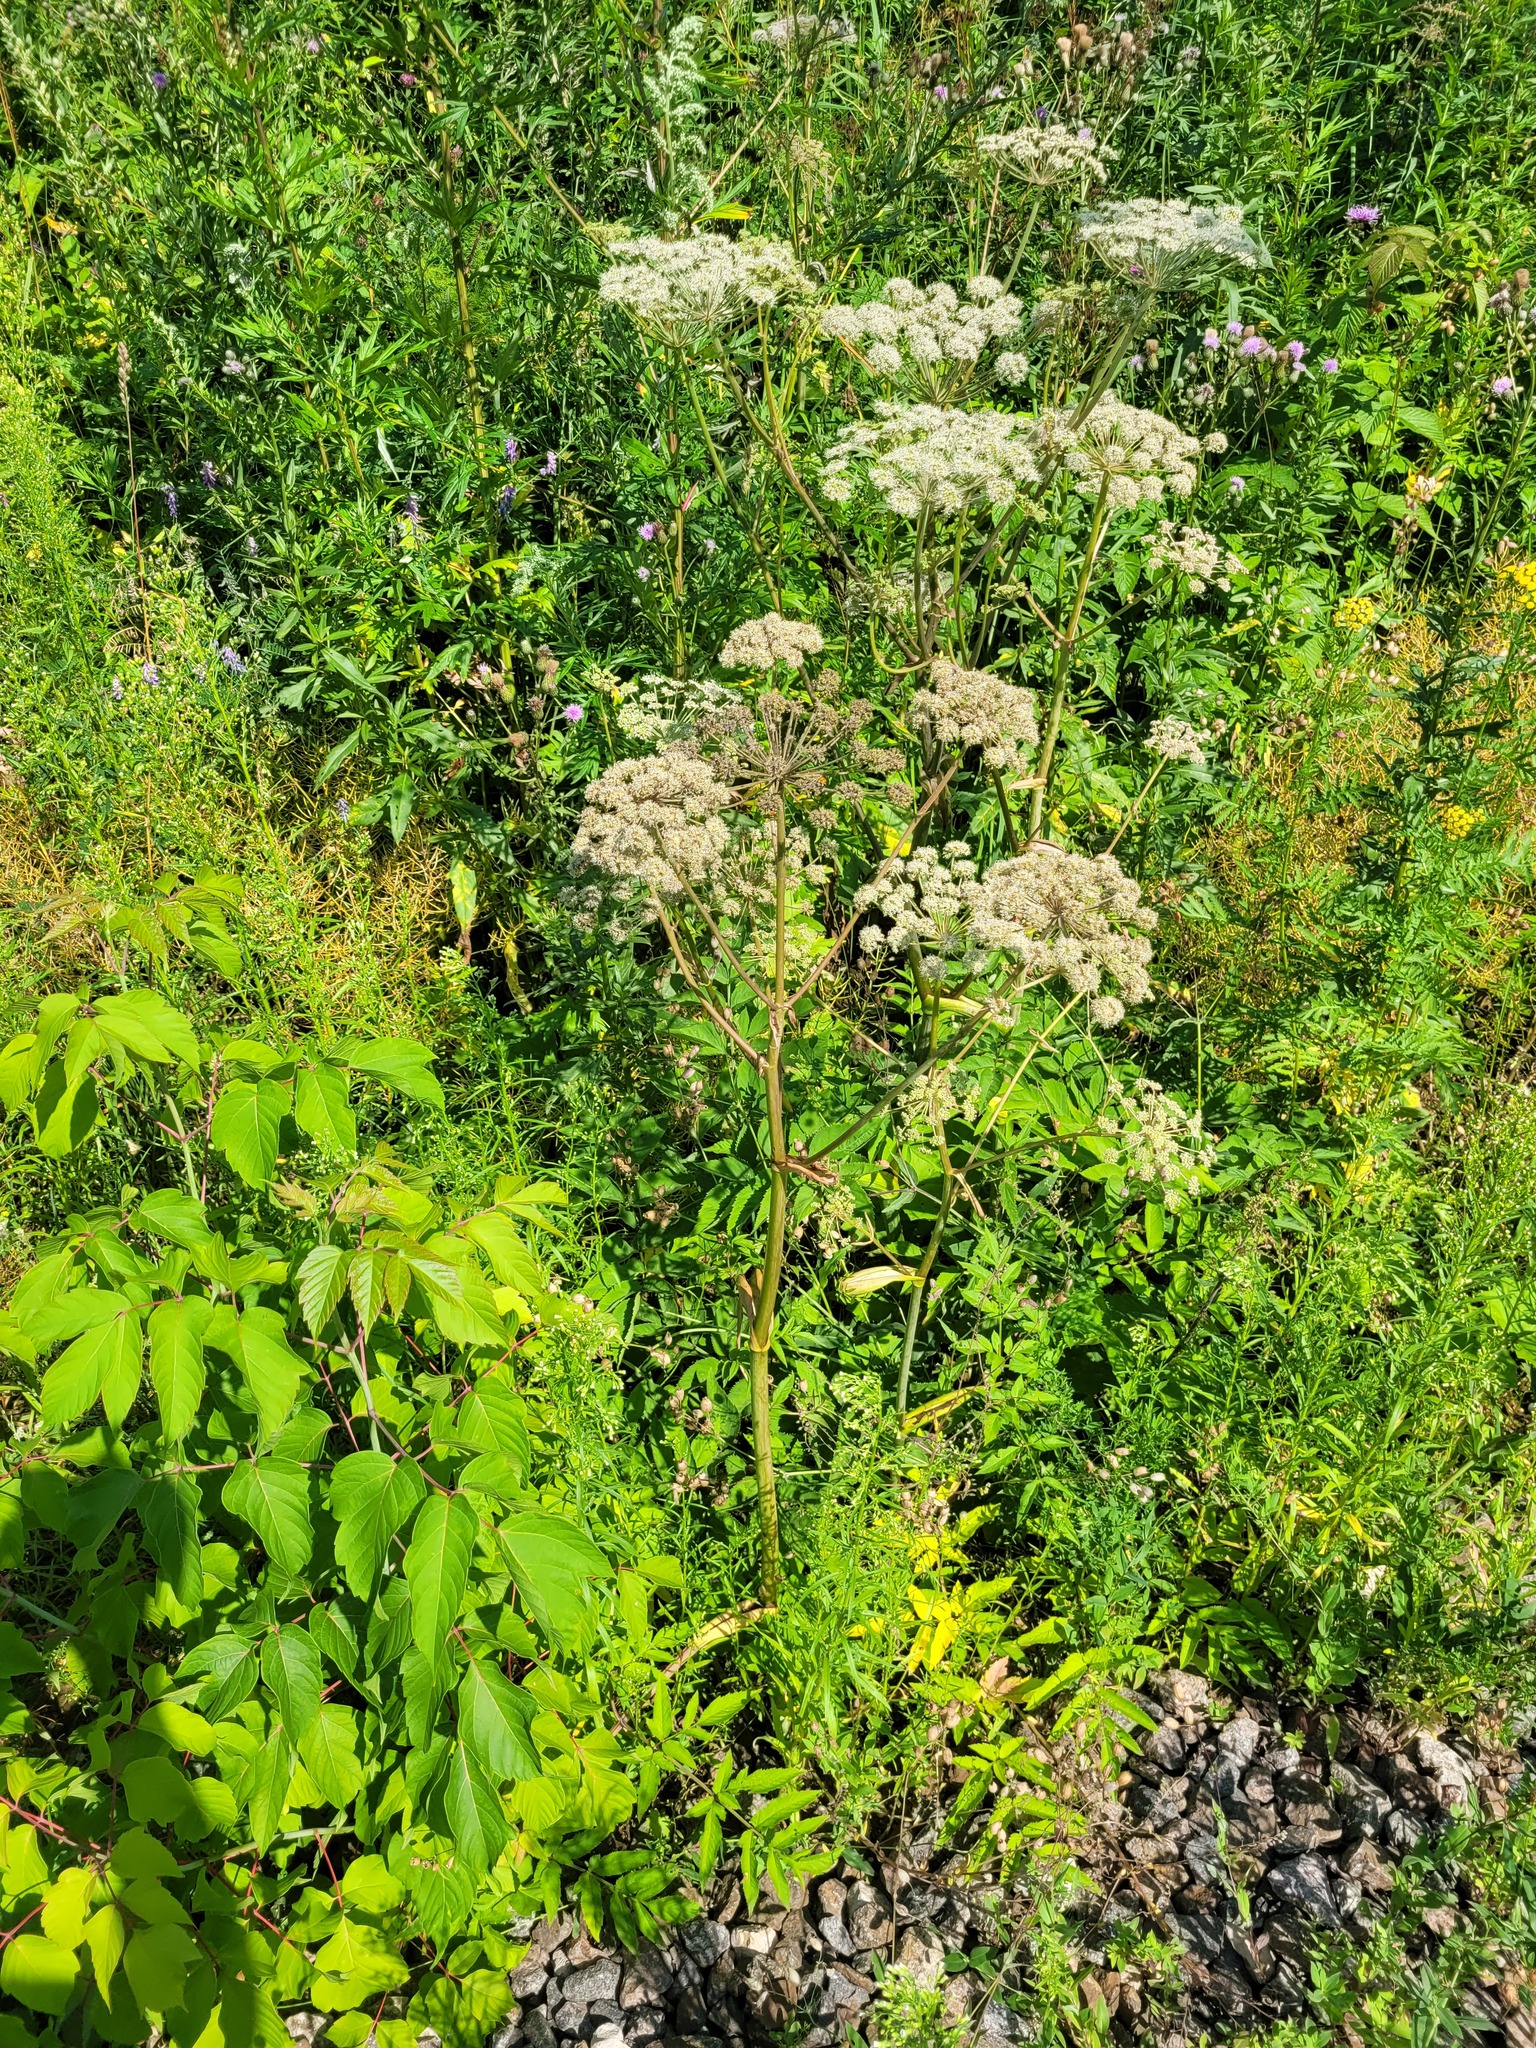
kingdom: Plantae
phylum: Tracheophyta
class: Magnoliopsida
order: Apiales
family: Apiaceae
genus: Angelica
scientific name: Angelica sylvestris
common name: Wild angelica
